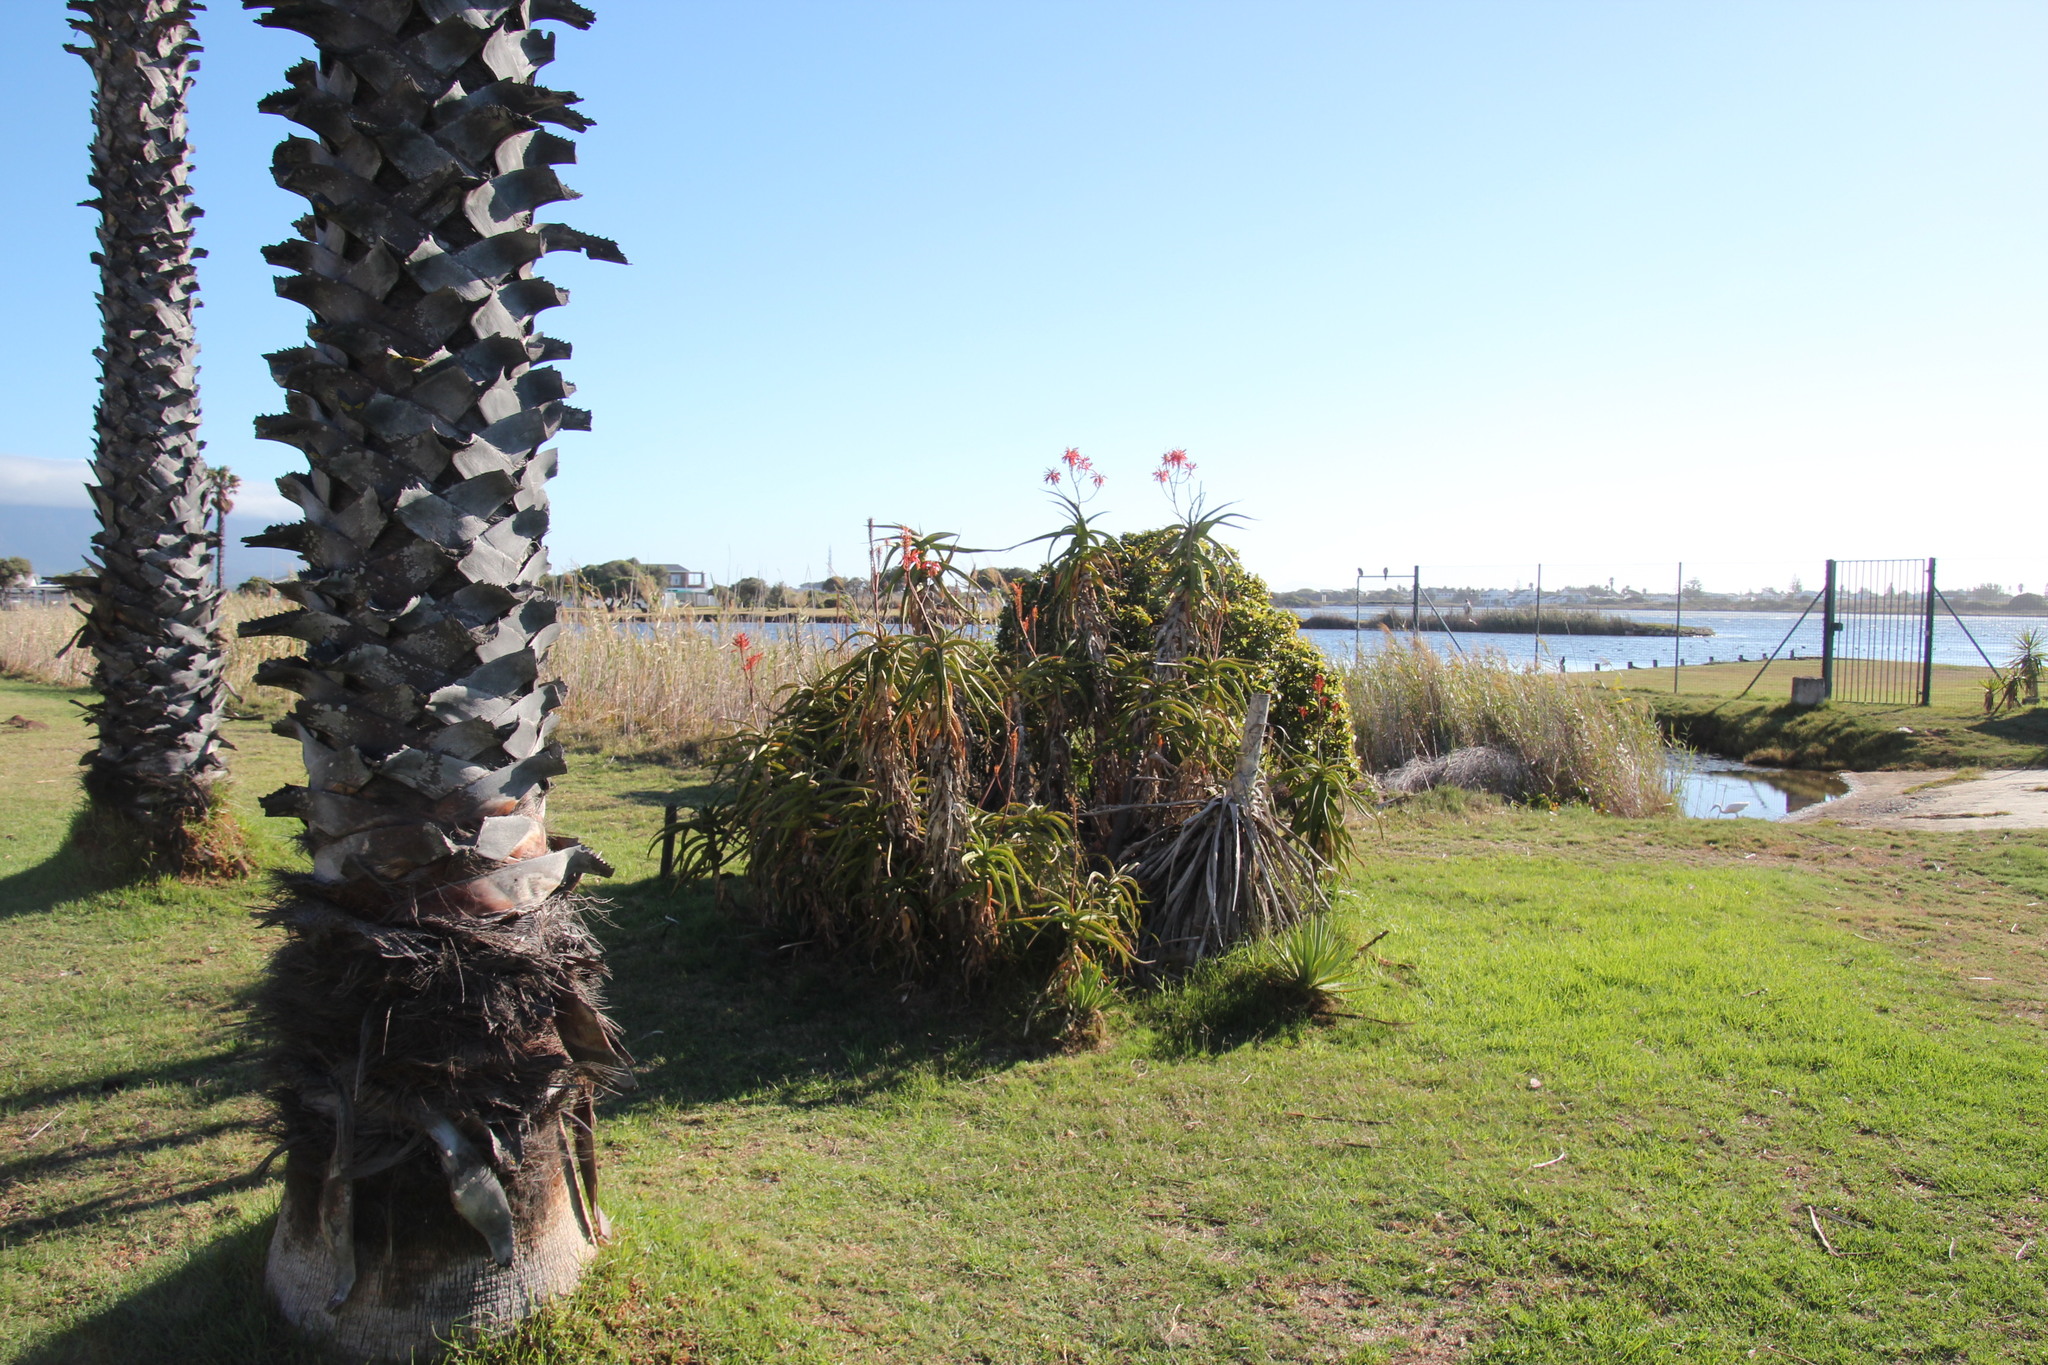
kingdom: Plantae
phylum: Tracheophyta
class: Liliopsida
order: Asparagales
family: Asphodelaceae
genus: Aloe
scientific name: Aloe arborescens
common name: Candelabra aloe
